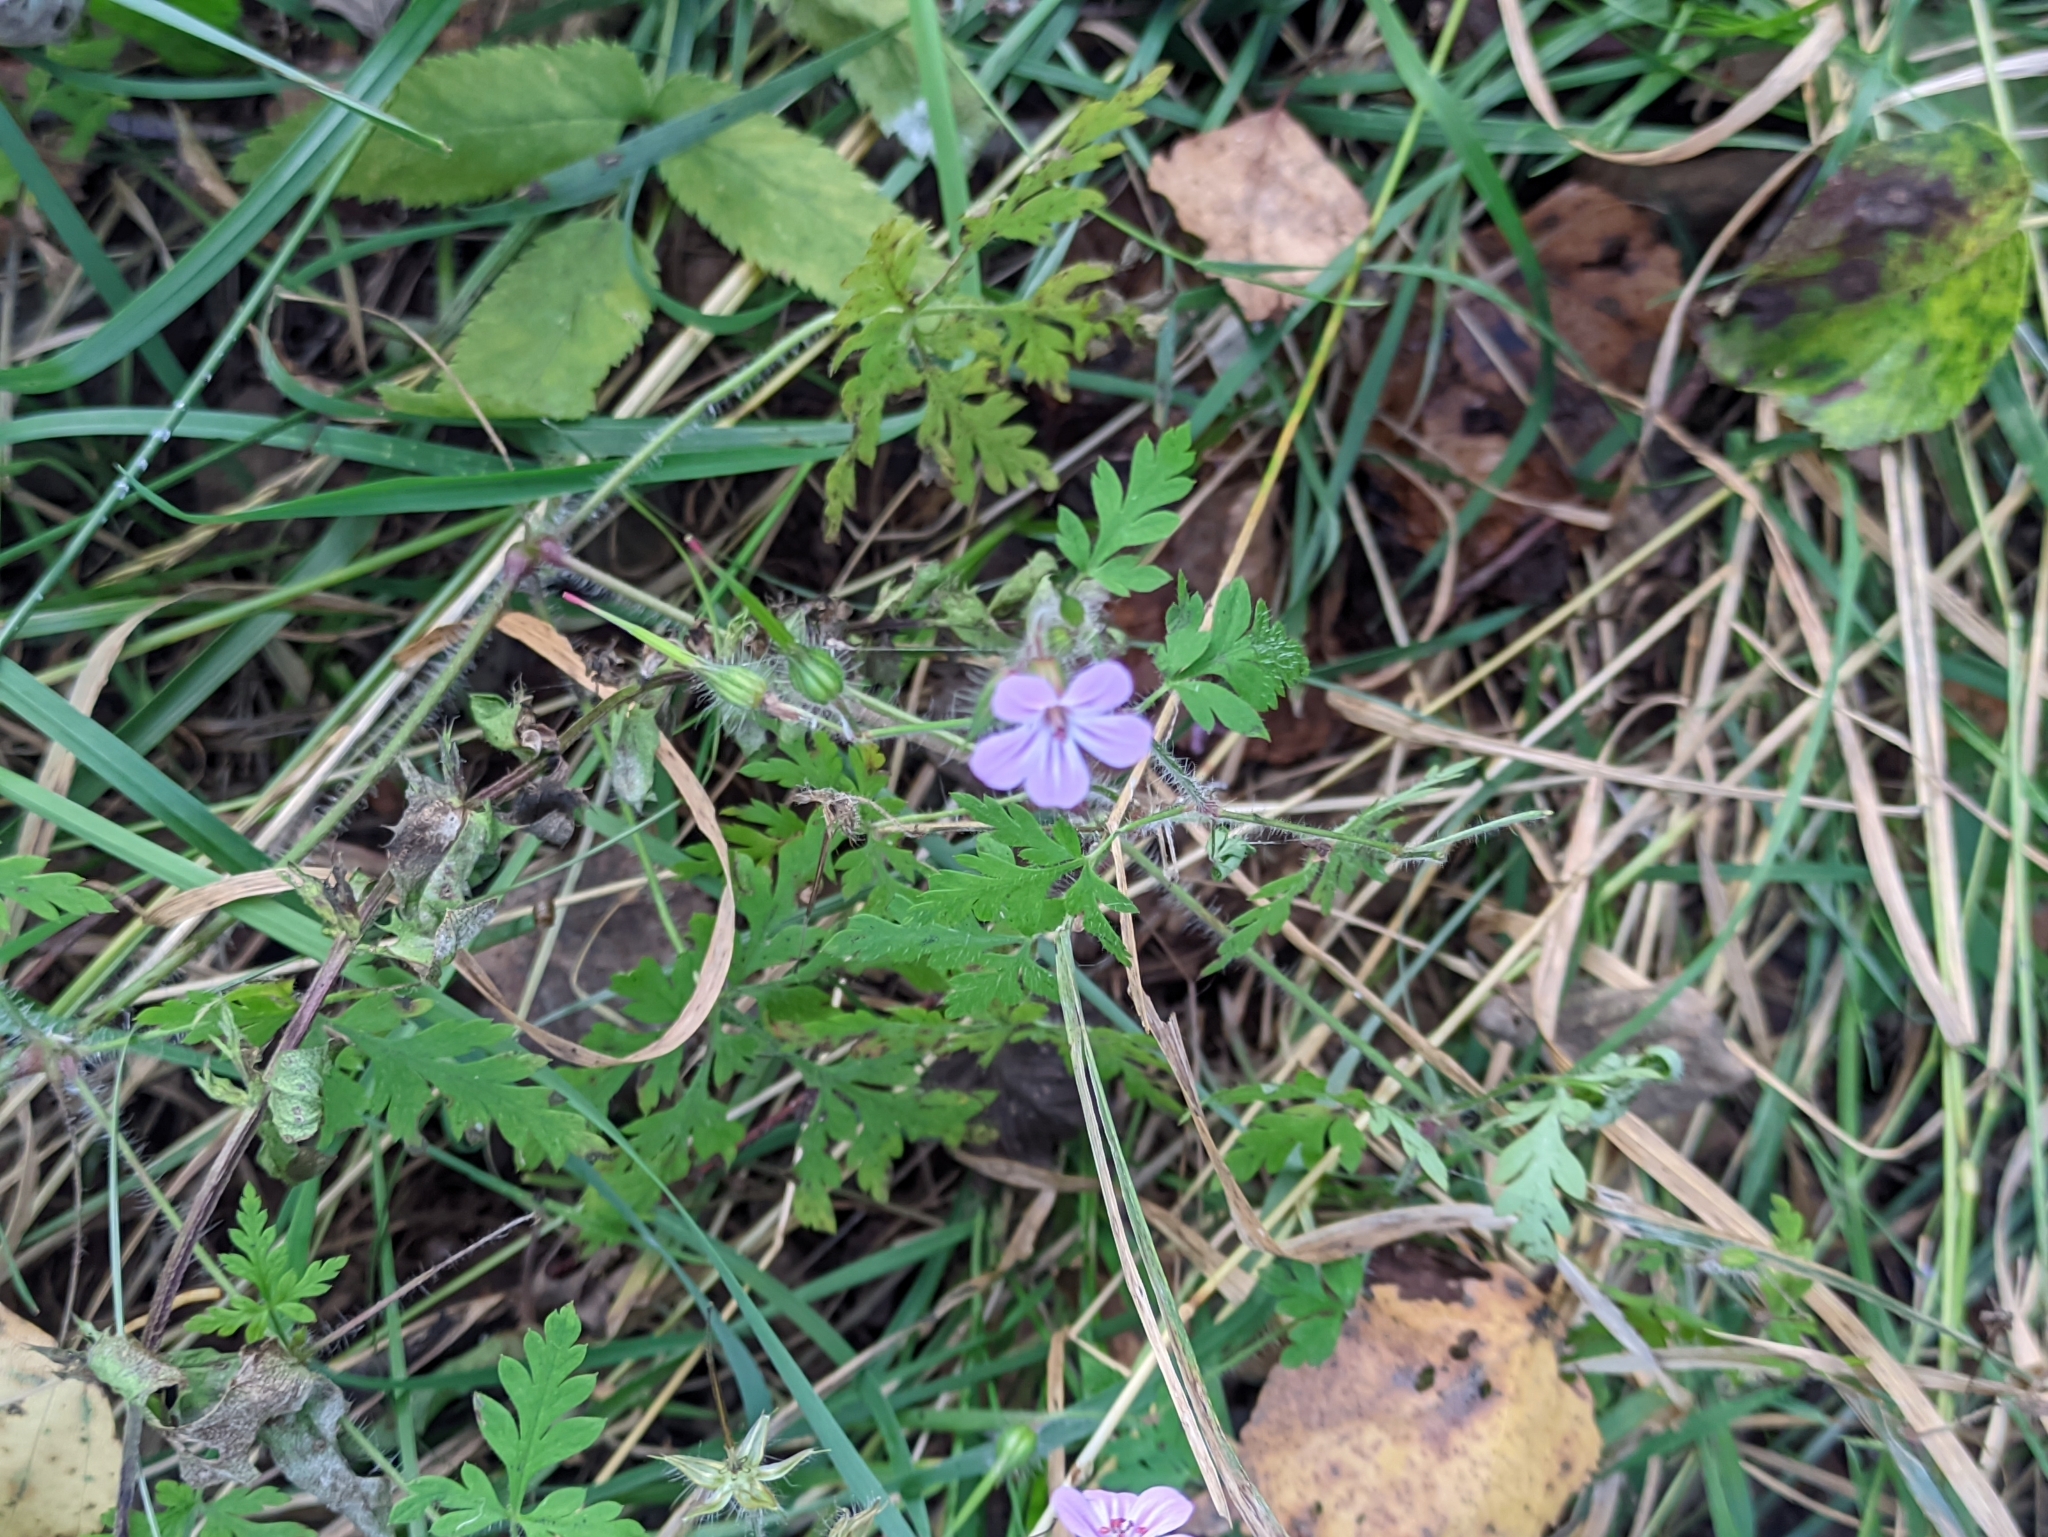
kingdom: Plantae
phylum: Tracheophyta
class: Magnoliopsida
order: Geraniales
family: Geraniaceae
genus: Geranium
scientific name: Geranium robertianum
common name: Herb-robert
